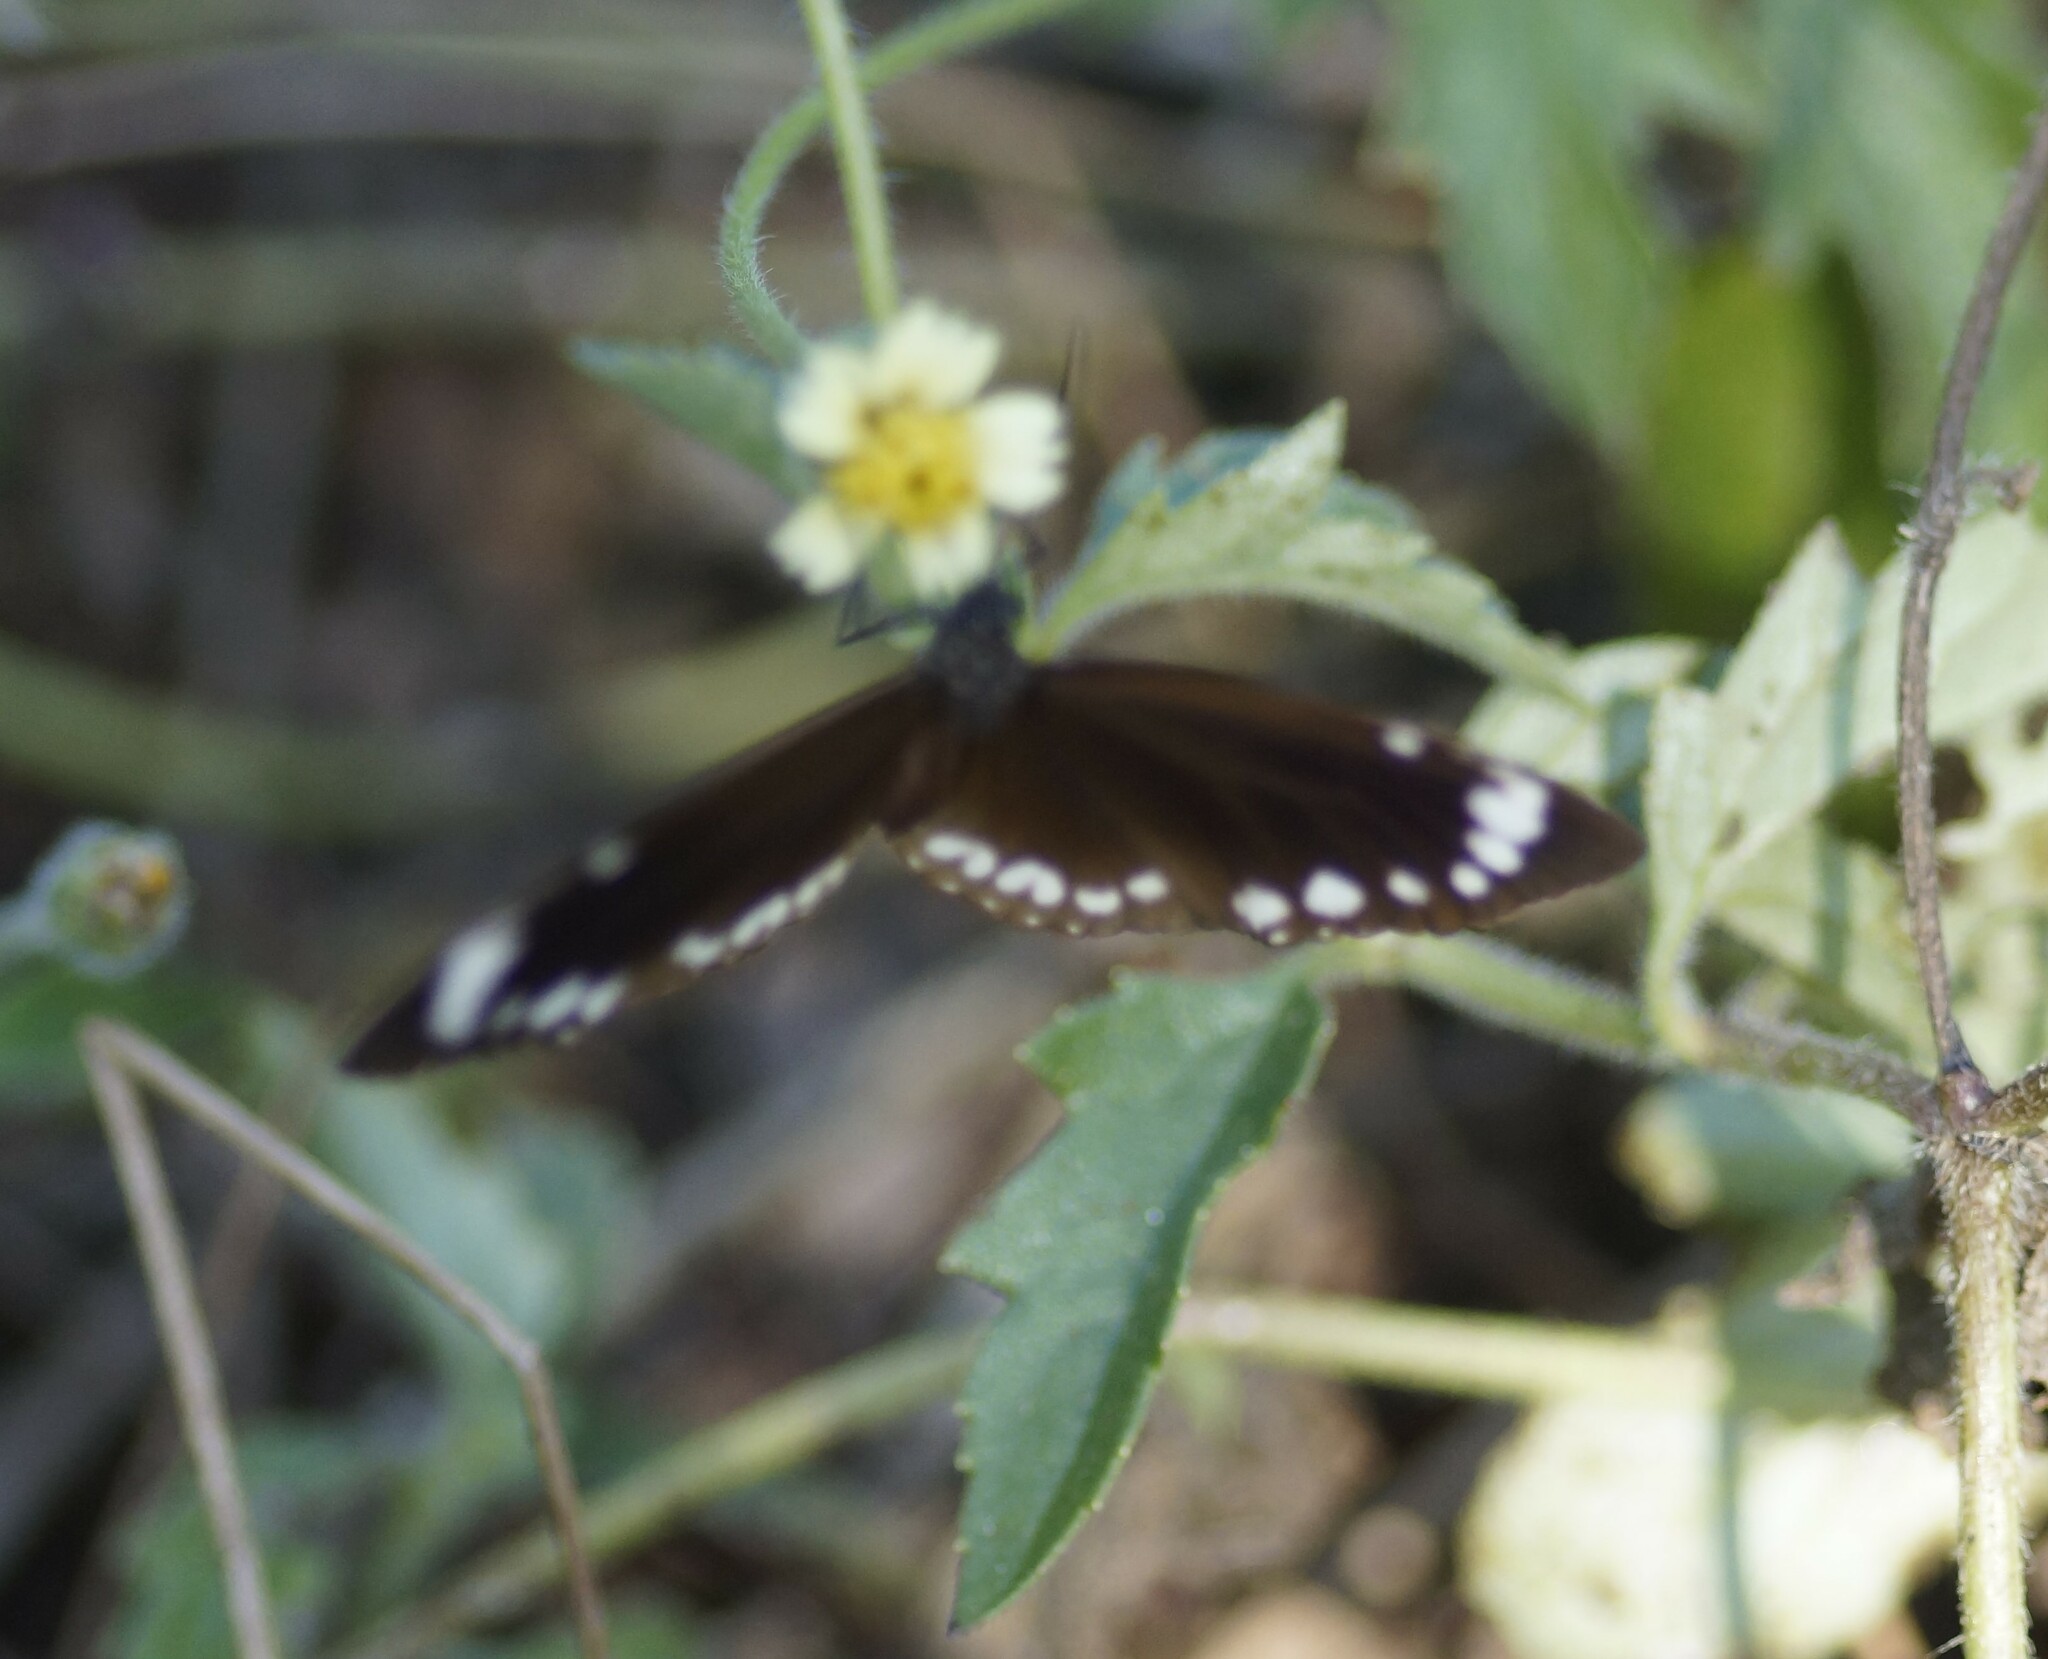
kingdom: Animalia
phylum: Arthropoda
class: Insecta
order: Lepidoptera
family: Nymphalidae
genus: Euploea
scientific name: Euploea darchia
